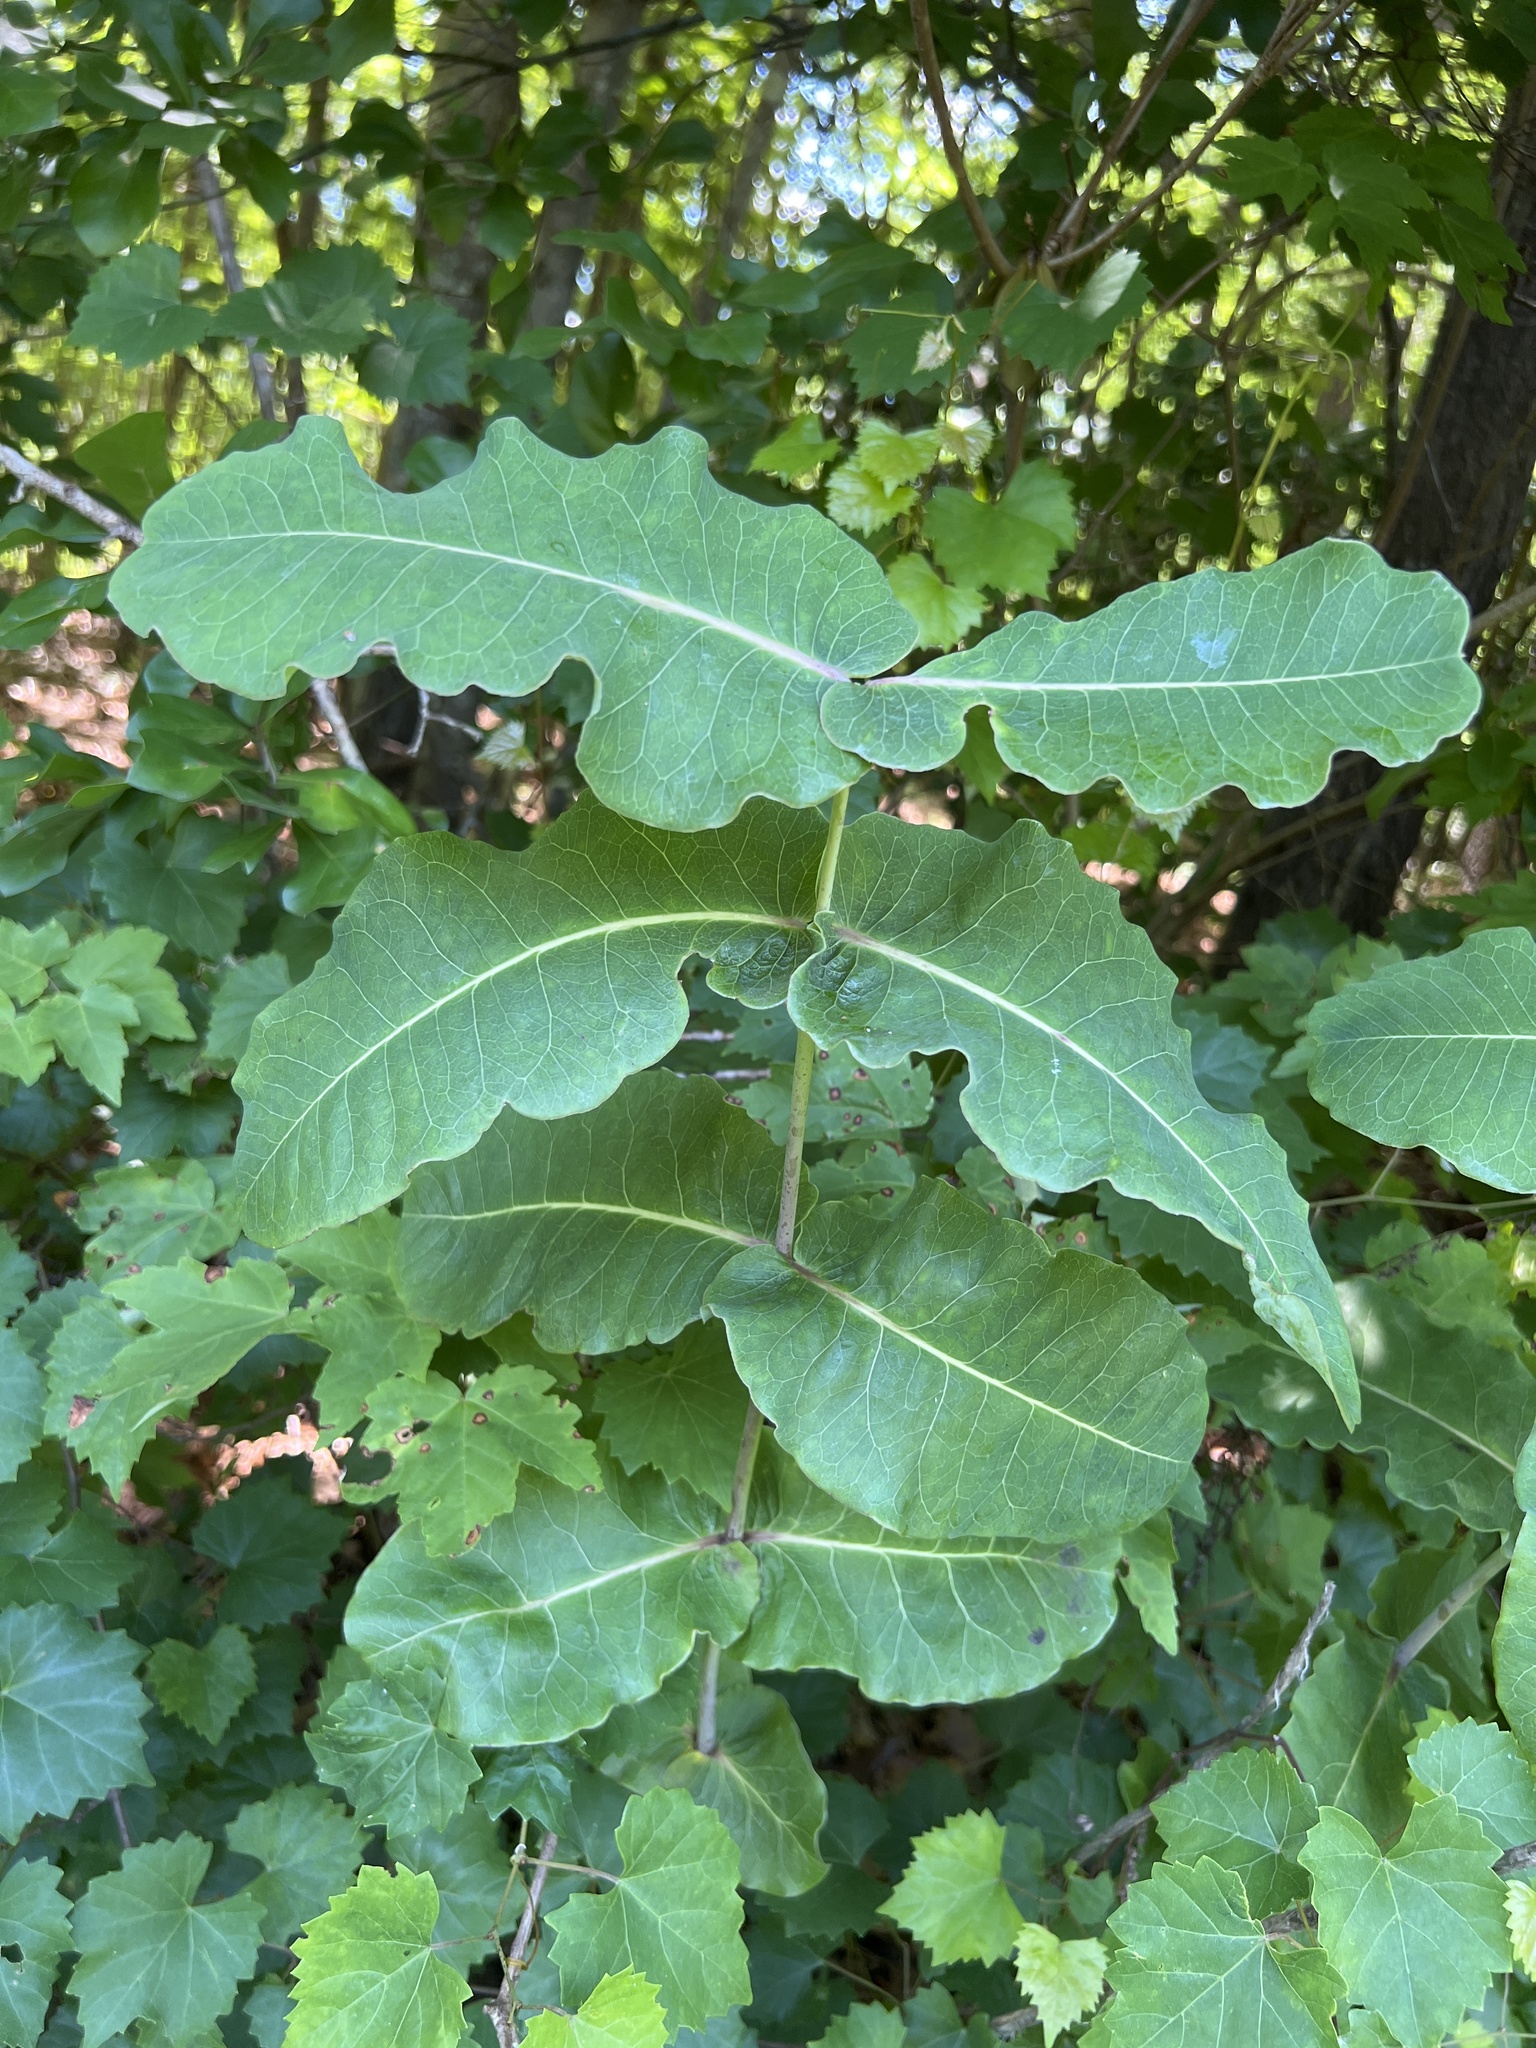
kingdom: Plantae
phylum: Tracheophyta
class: Magnoliopsida
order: Gentianales
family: Apocynaceae
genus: Asclepias
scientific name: Asclepias amplexicaulis
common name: Blunt-leaf milkweed
